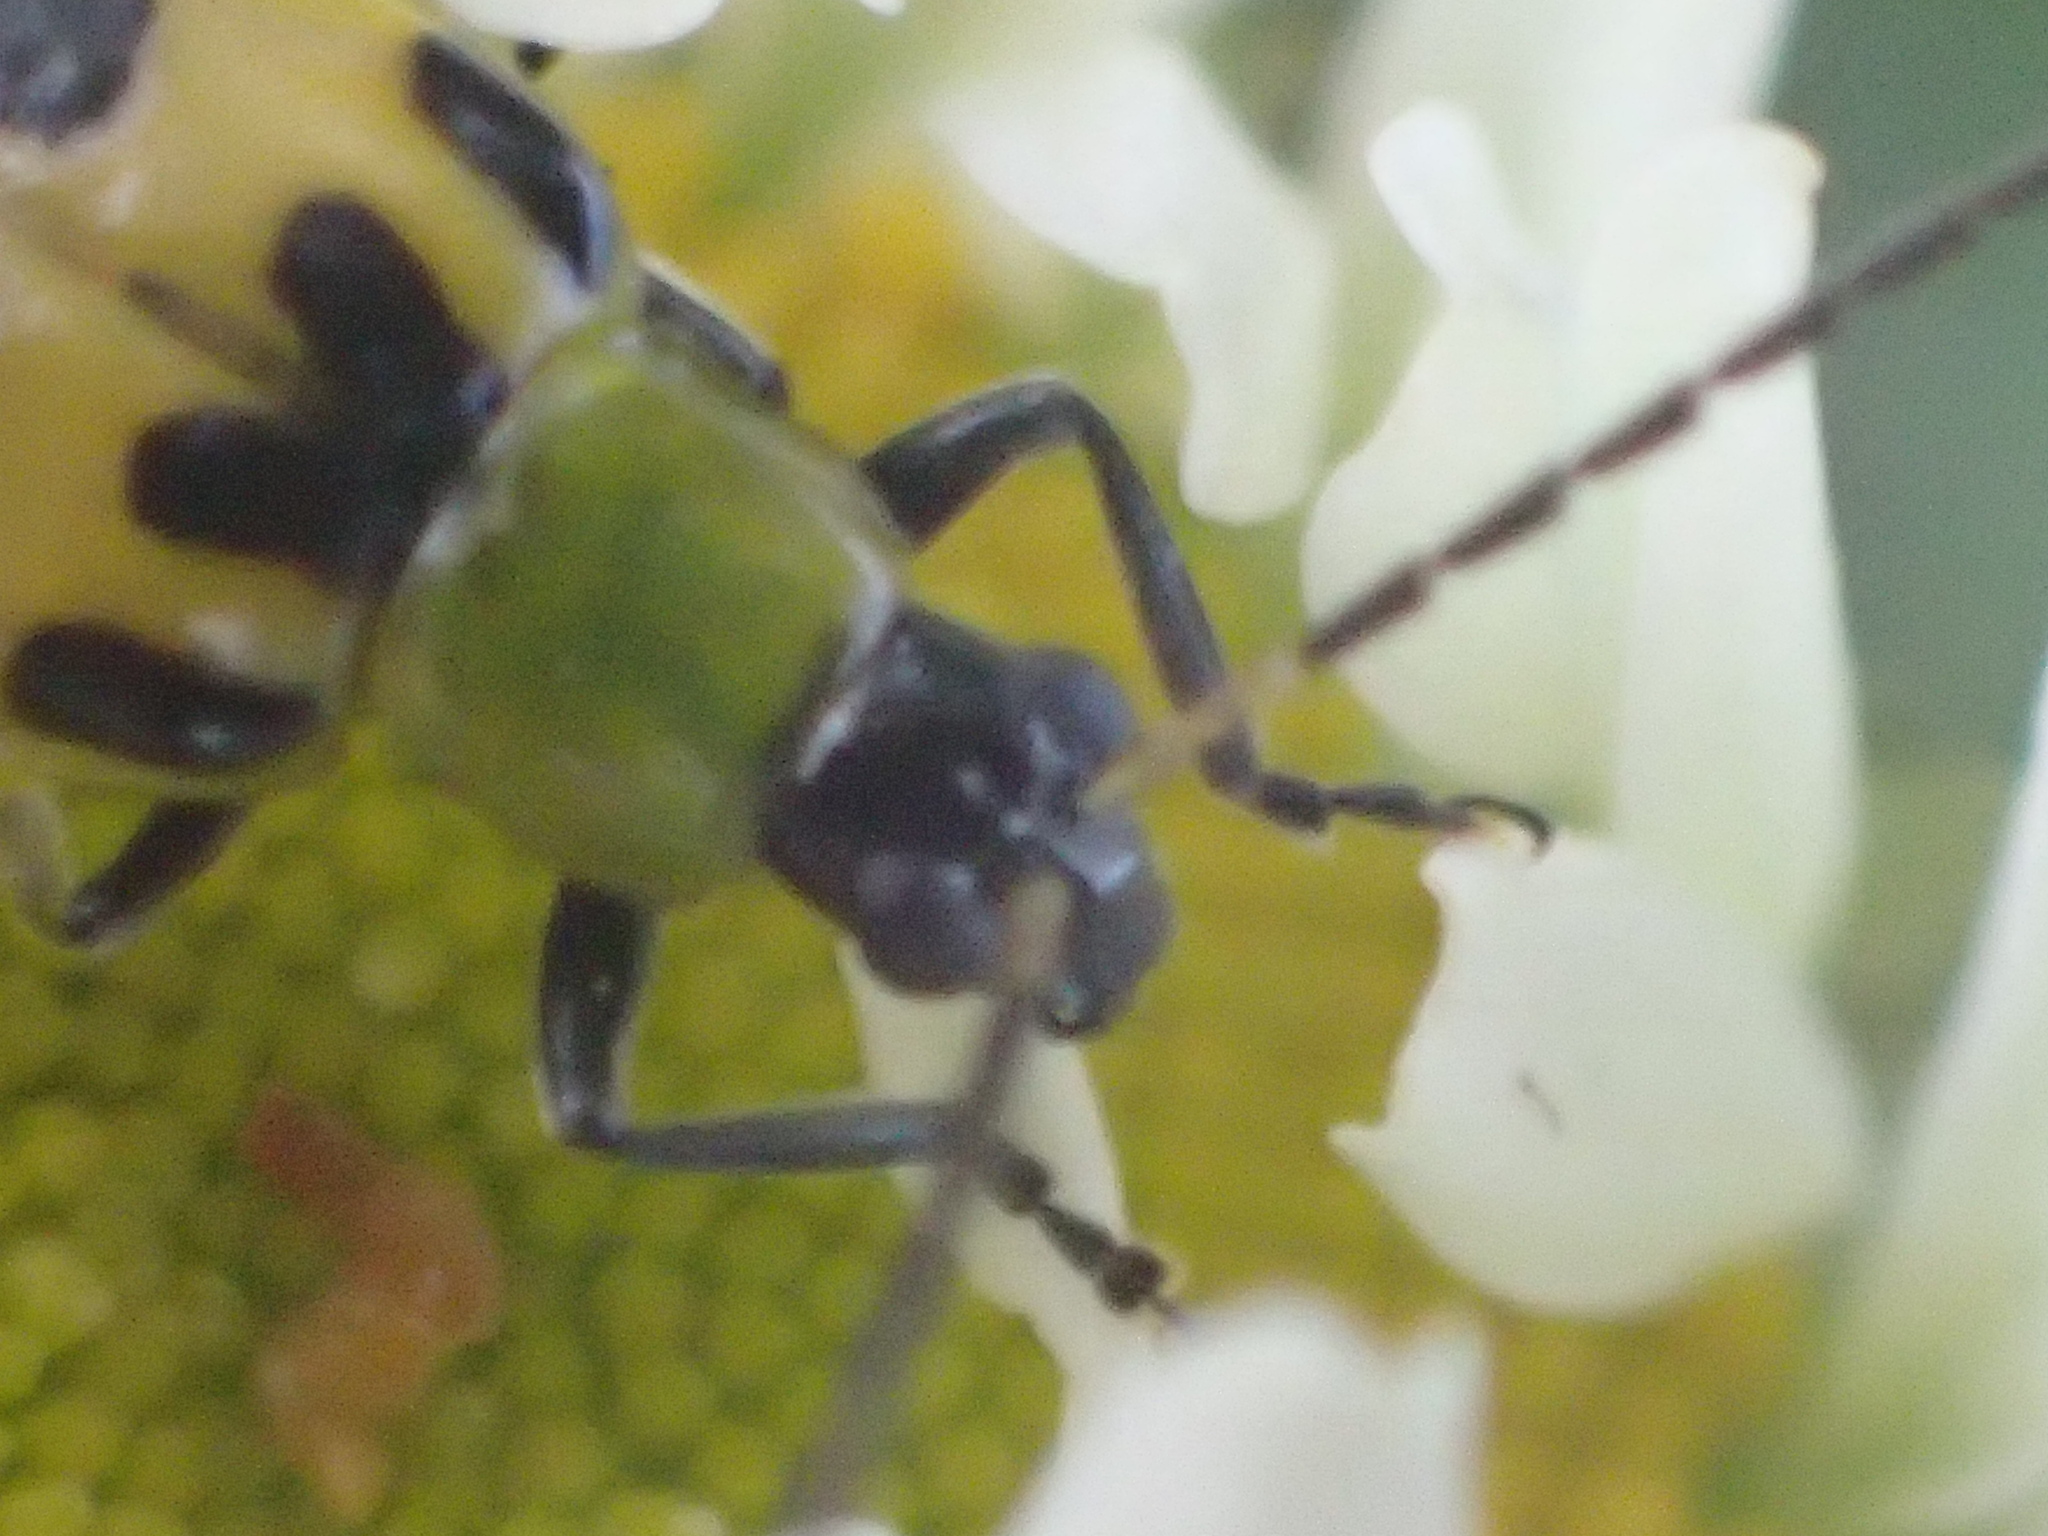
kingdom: Animalia
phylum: Arthropoda
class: Insecta
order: Coleoptera
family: Chrysomelidae
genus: Diabrotica
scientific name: Diabrotica undecimpunctata
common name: Spotted cucumber beetle
